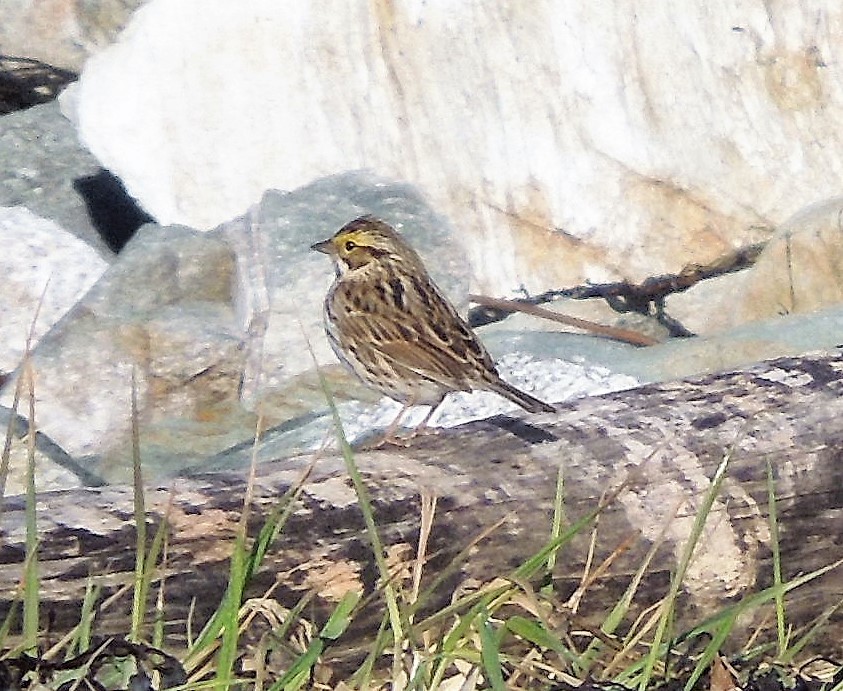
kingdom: Animalia
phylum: Chordata
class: Aves
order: Passeriformes
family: Passerellidae
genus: Passerculus
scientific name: Passerculus sandwichensis
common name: Savannah sparrow
